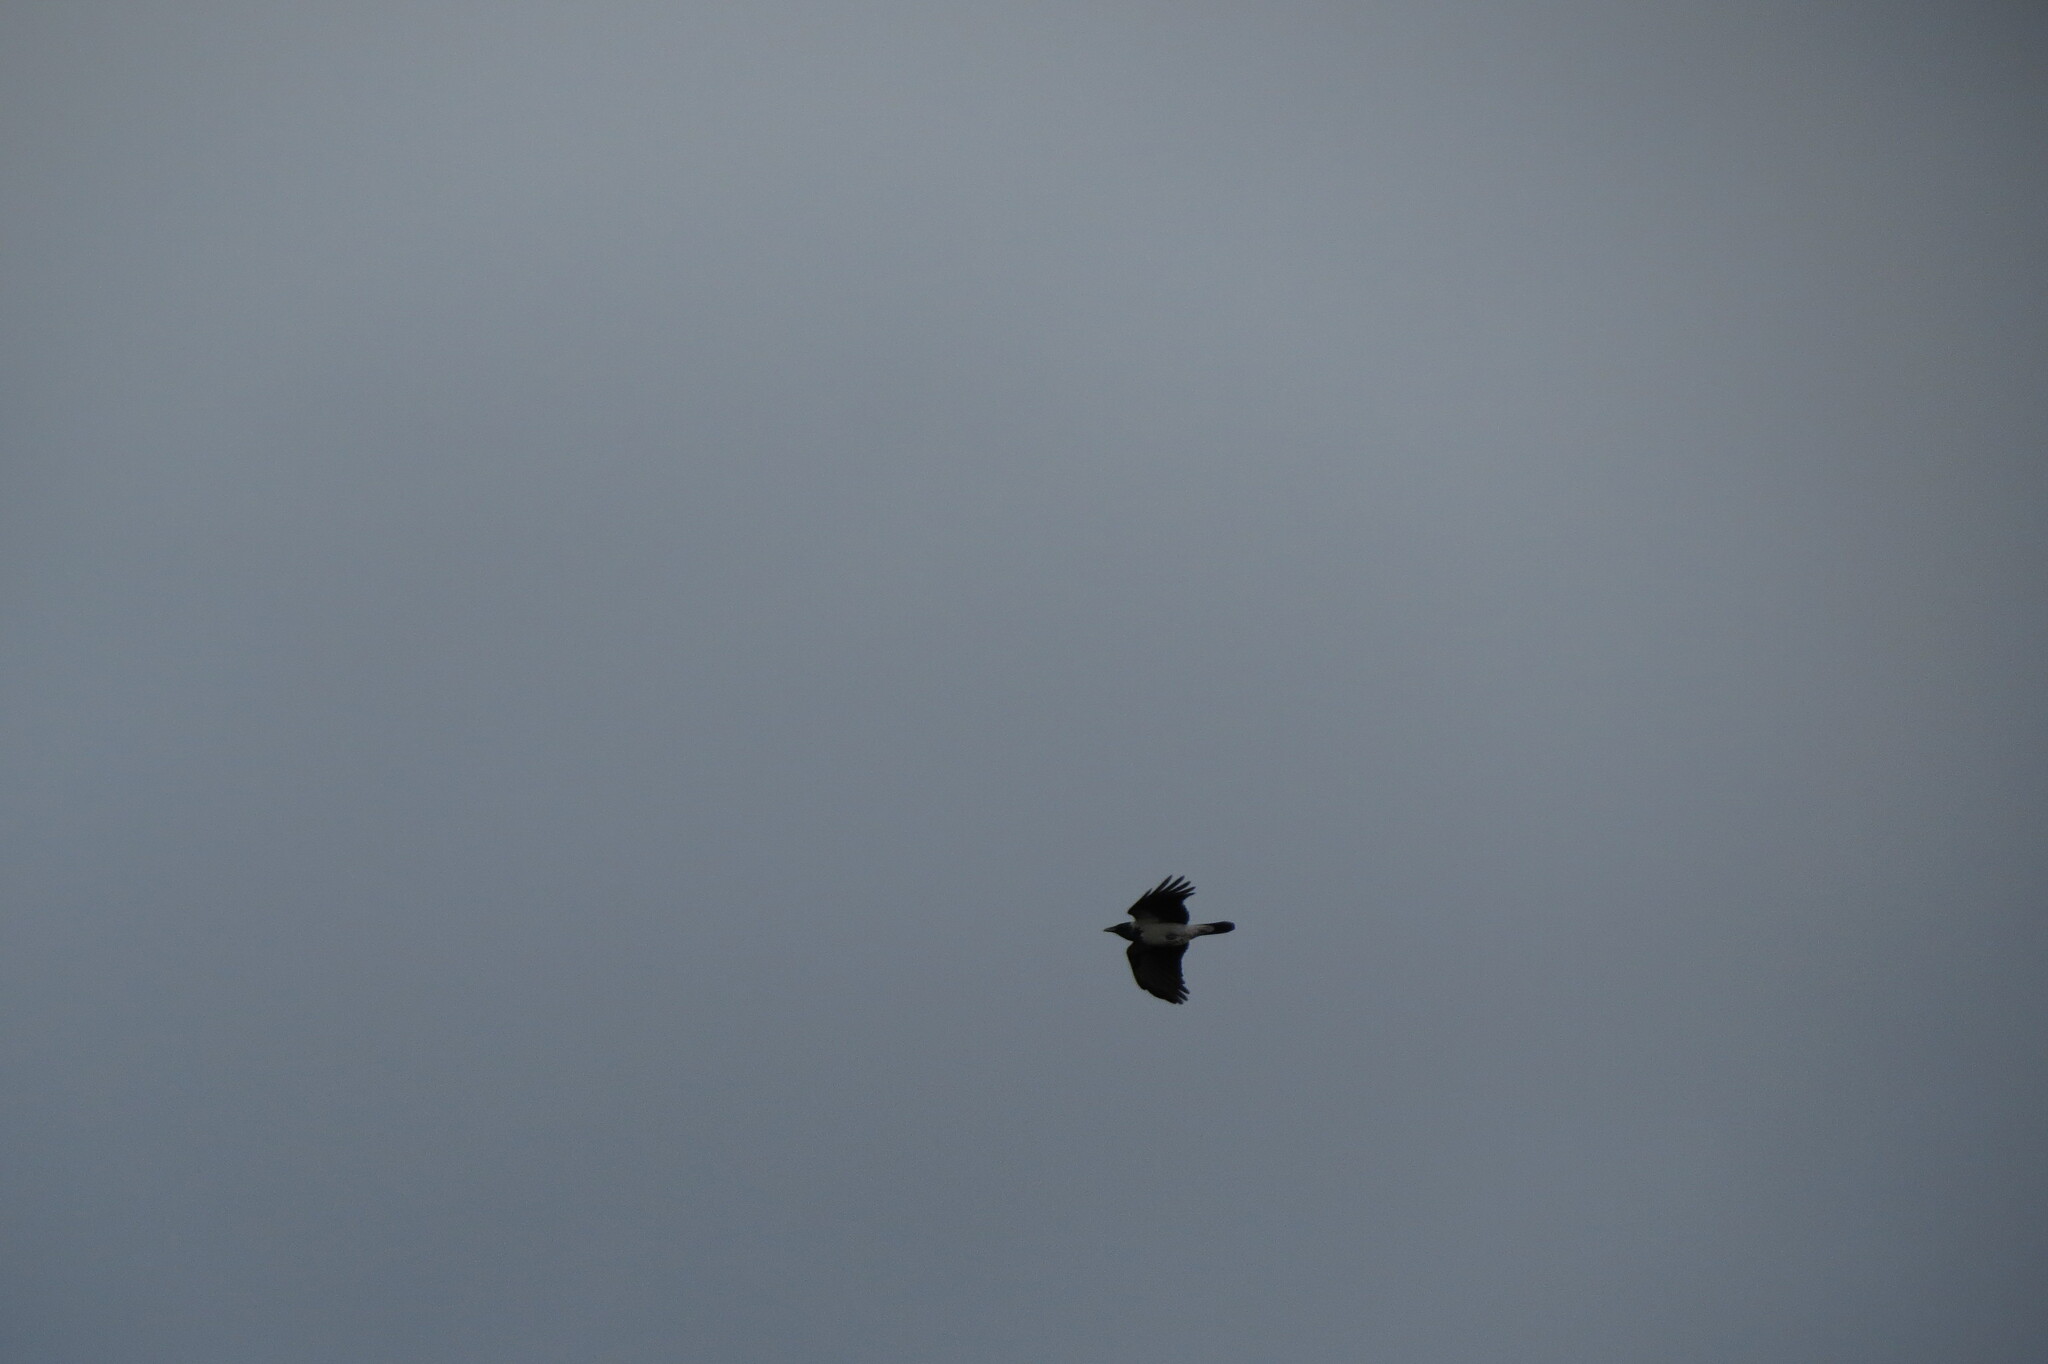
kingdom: Animalia
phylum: Chordata
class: Aves
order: Passeriformes
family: Corvidae
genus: Corvus
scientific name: Corvus cornix
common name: Hooded crow
